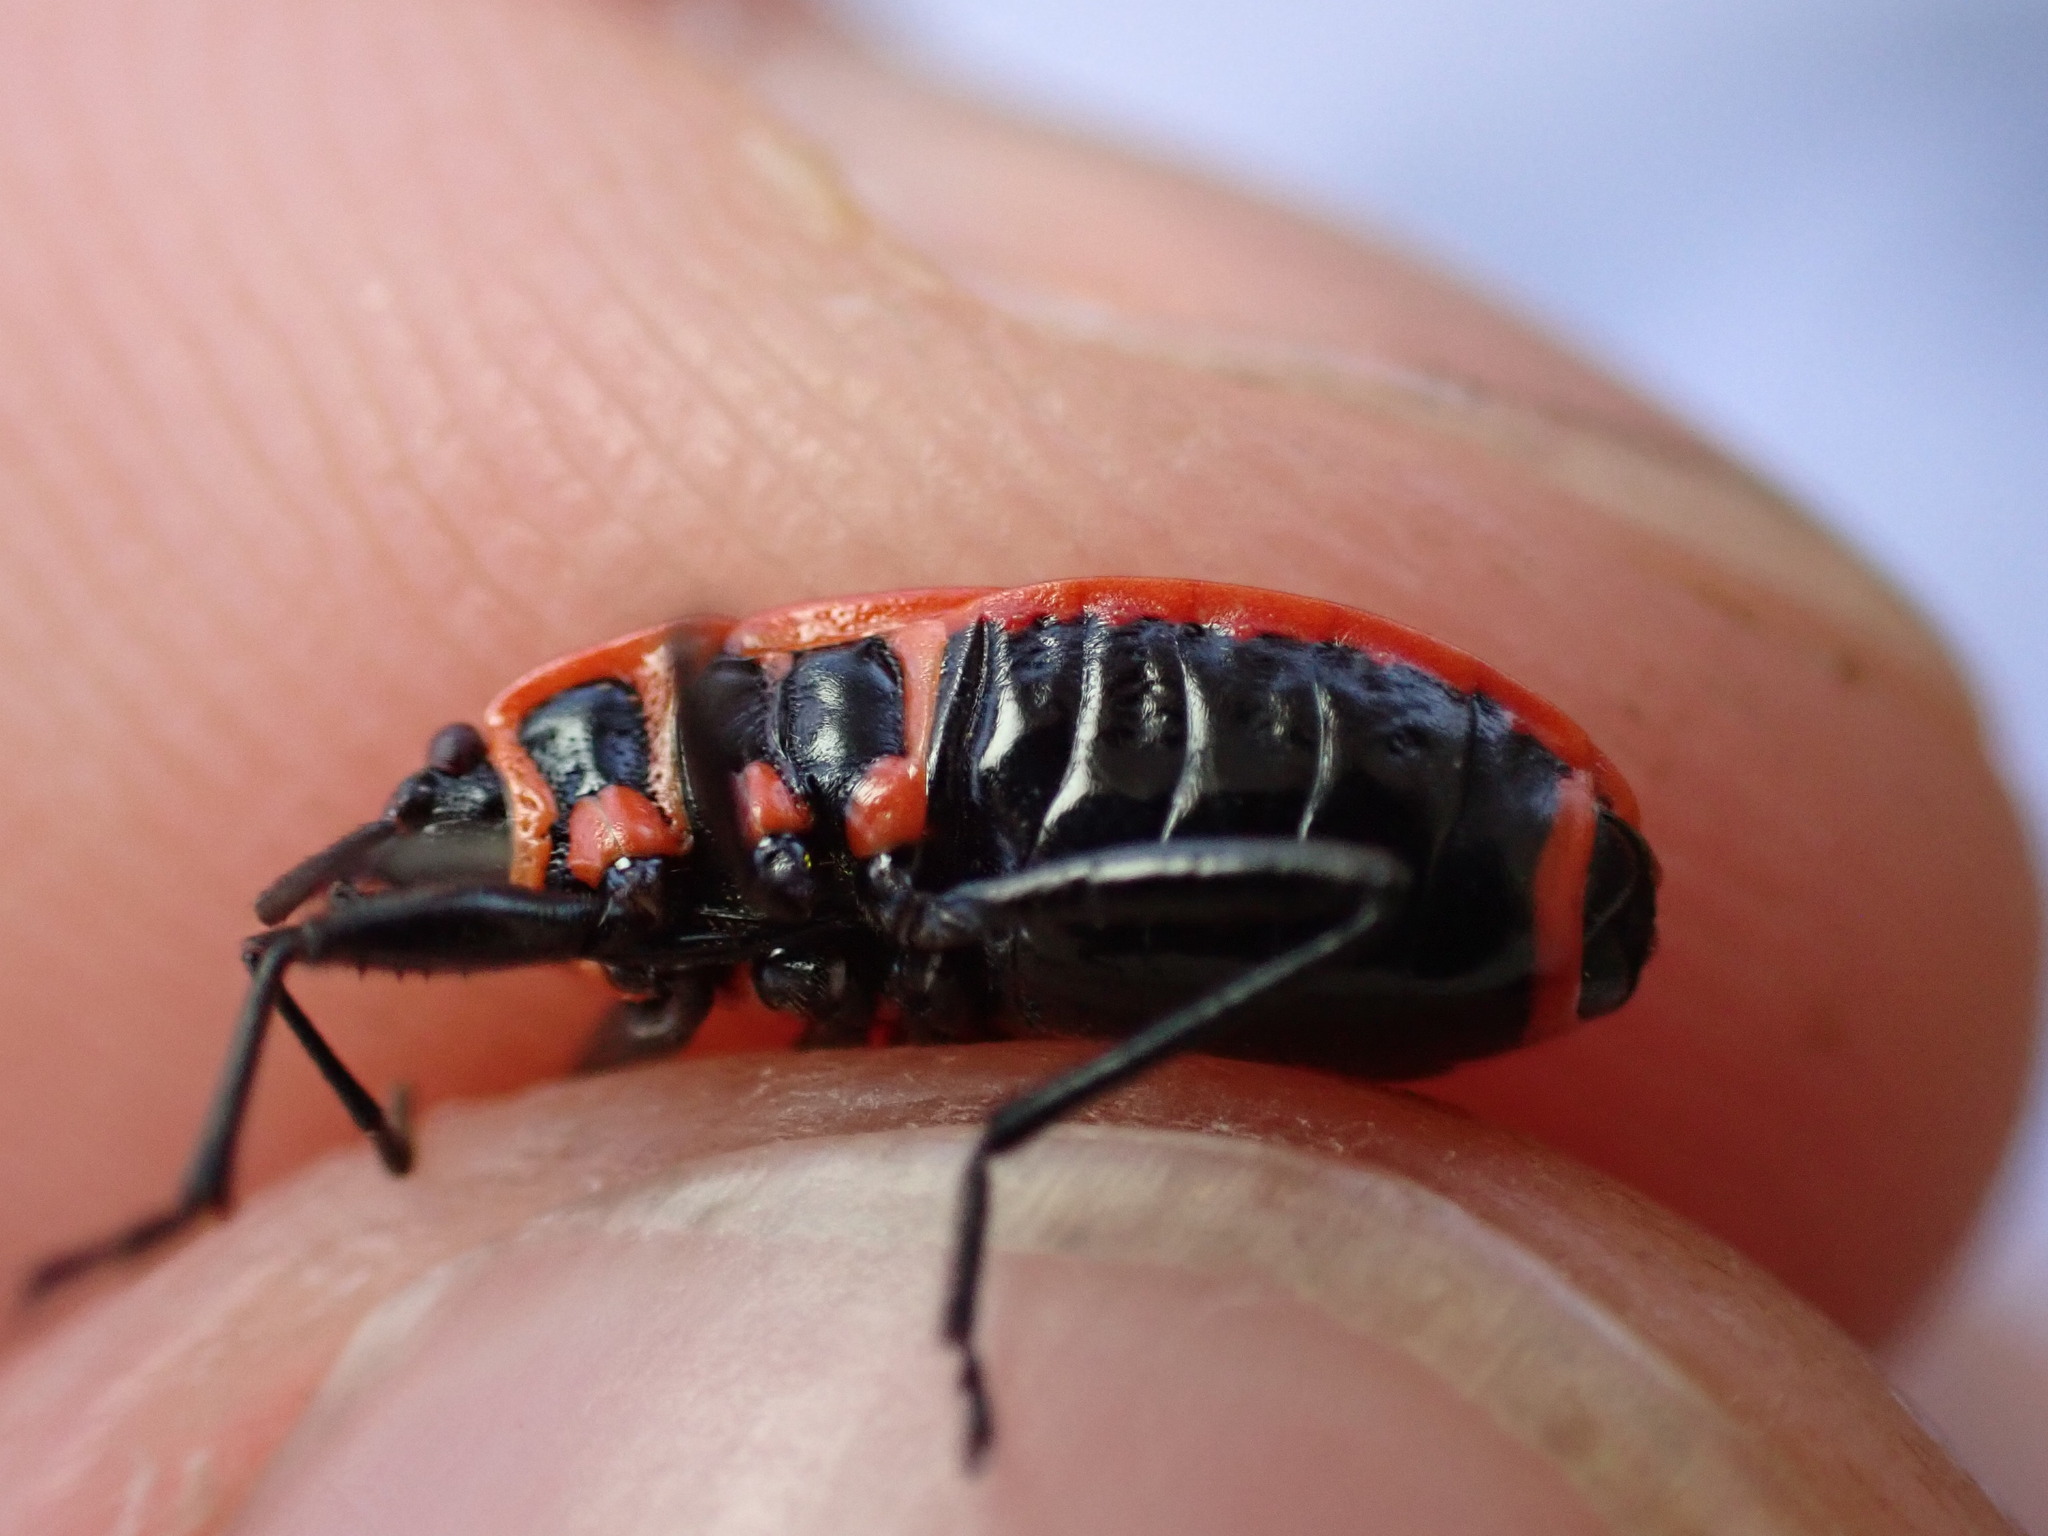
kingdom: Animalia
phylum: Arthropoda
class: Insecta
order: Hemiptera
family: Pyrrhocoridae
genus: Pyrrhocoris
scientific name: Pyrrhocoris apterus
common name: Firebug
